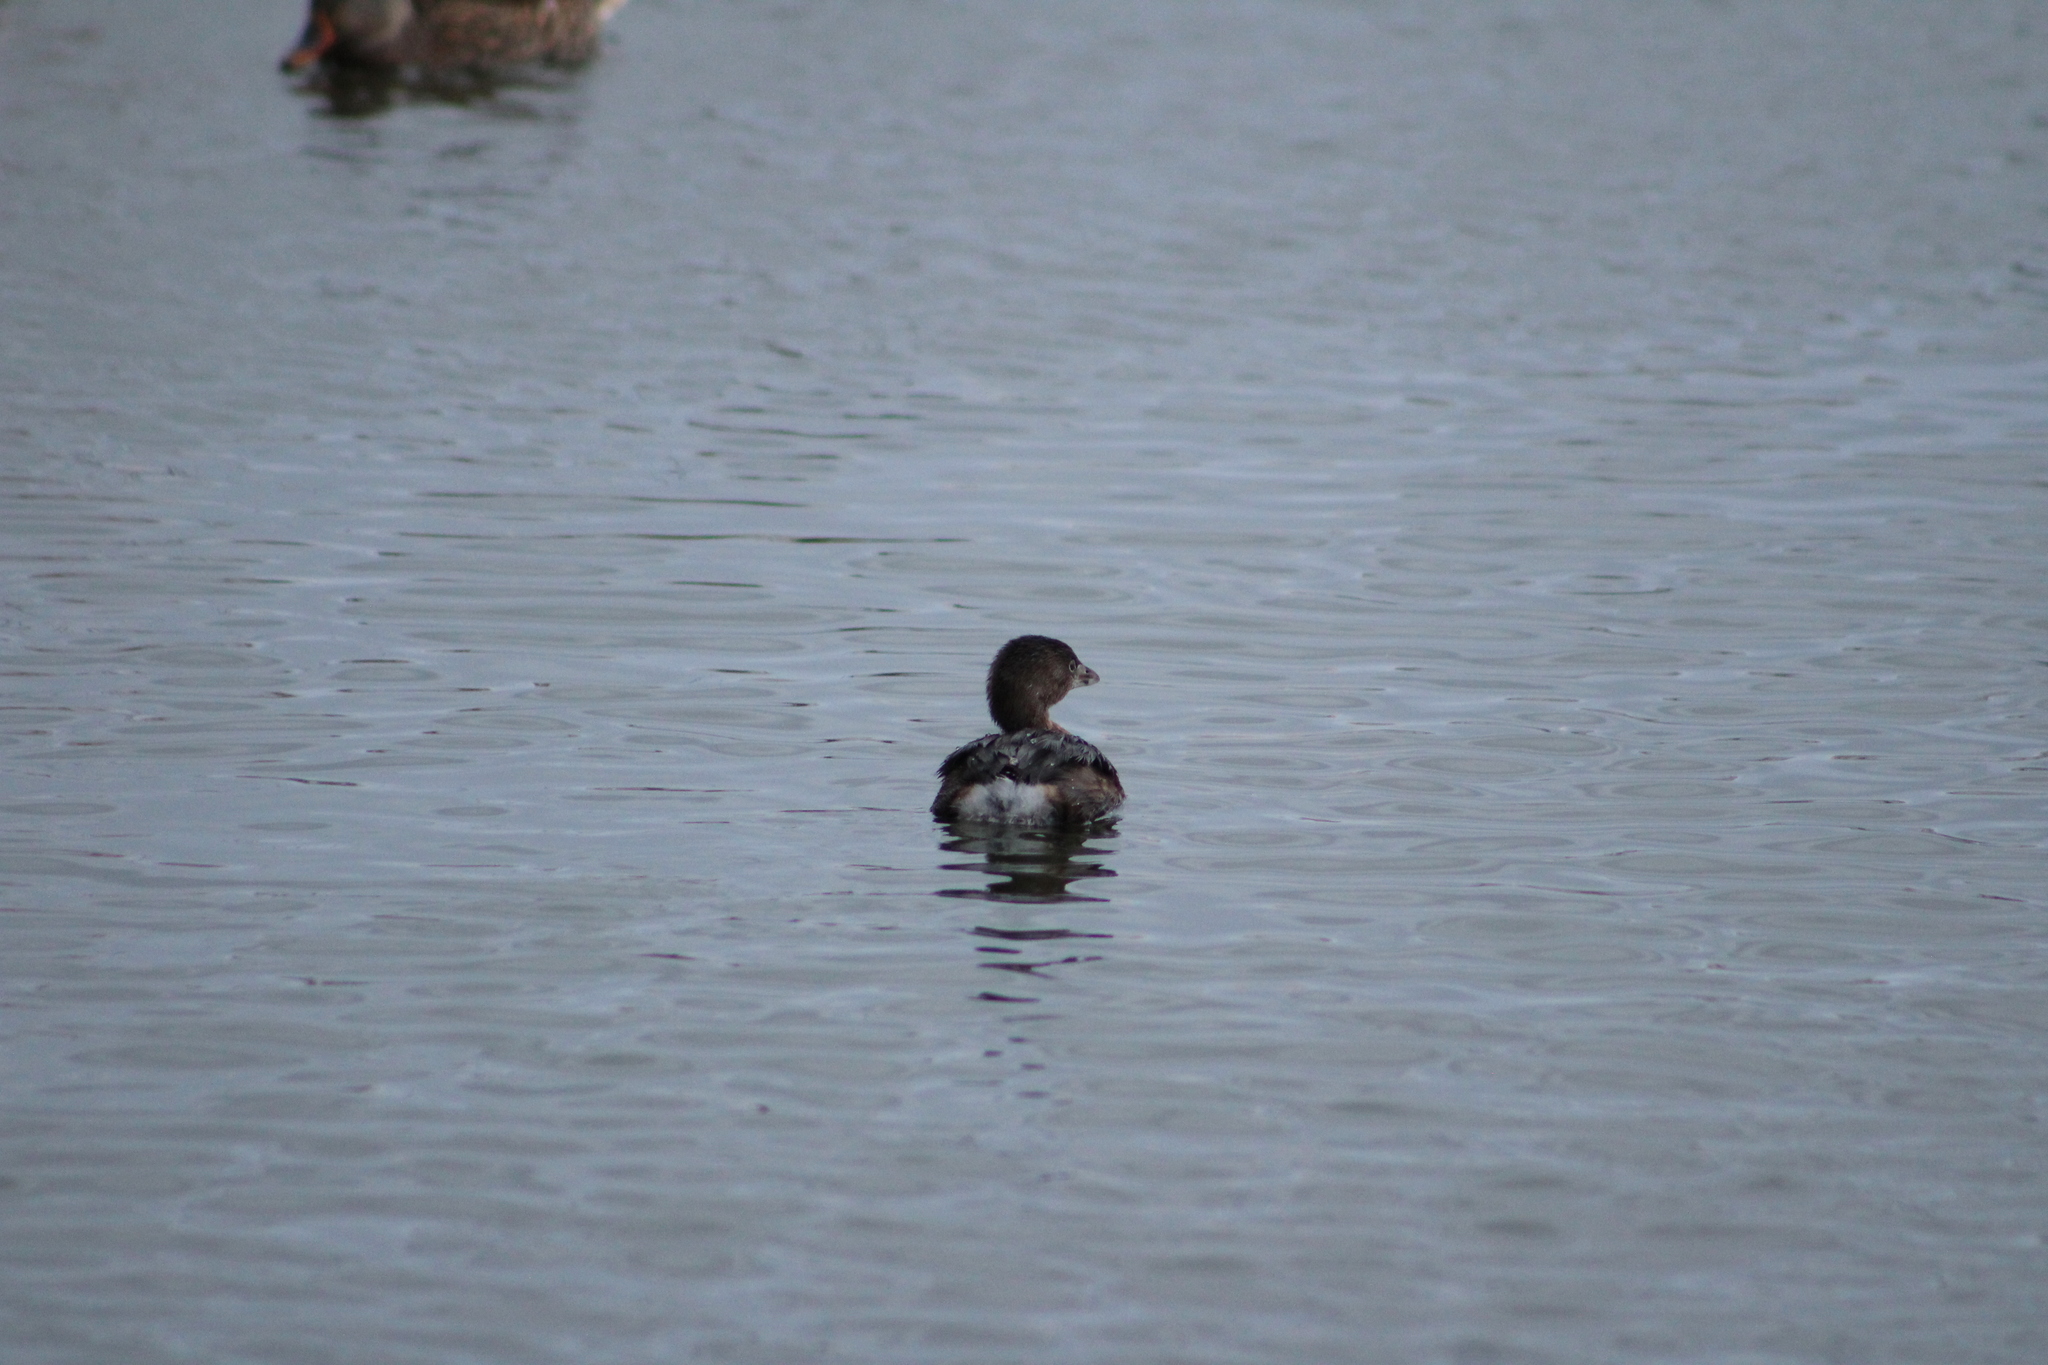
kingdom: Animalia
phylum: Chordata
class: Aves
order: Podicipediformes
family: Podicipedidae
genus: Podilymbus
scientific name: Podilymbus podiceps
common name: Pied-billed grebe
